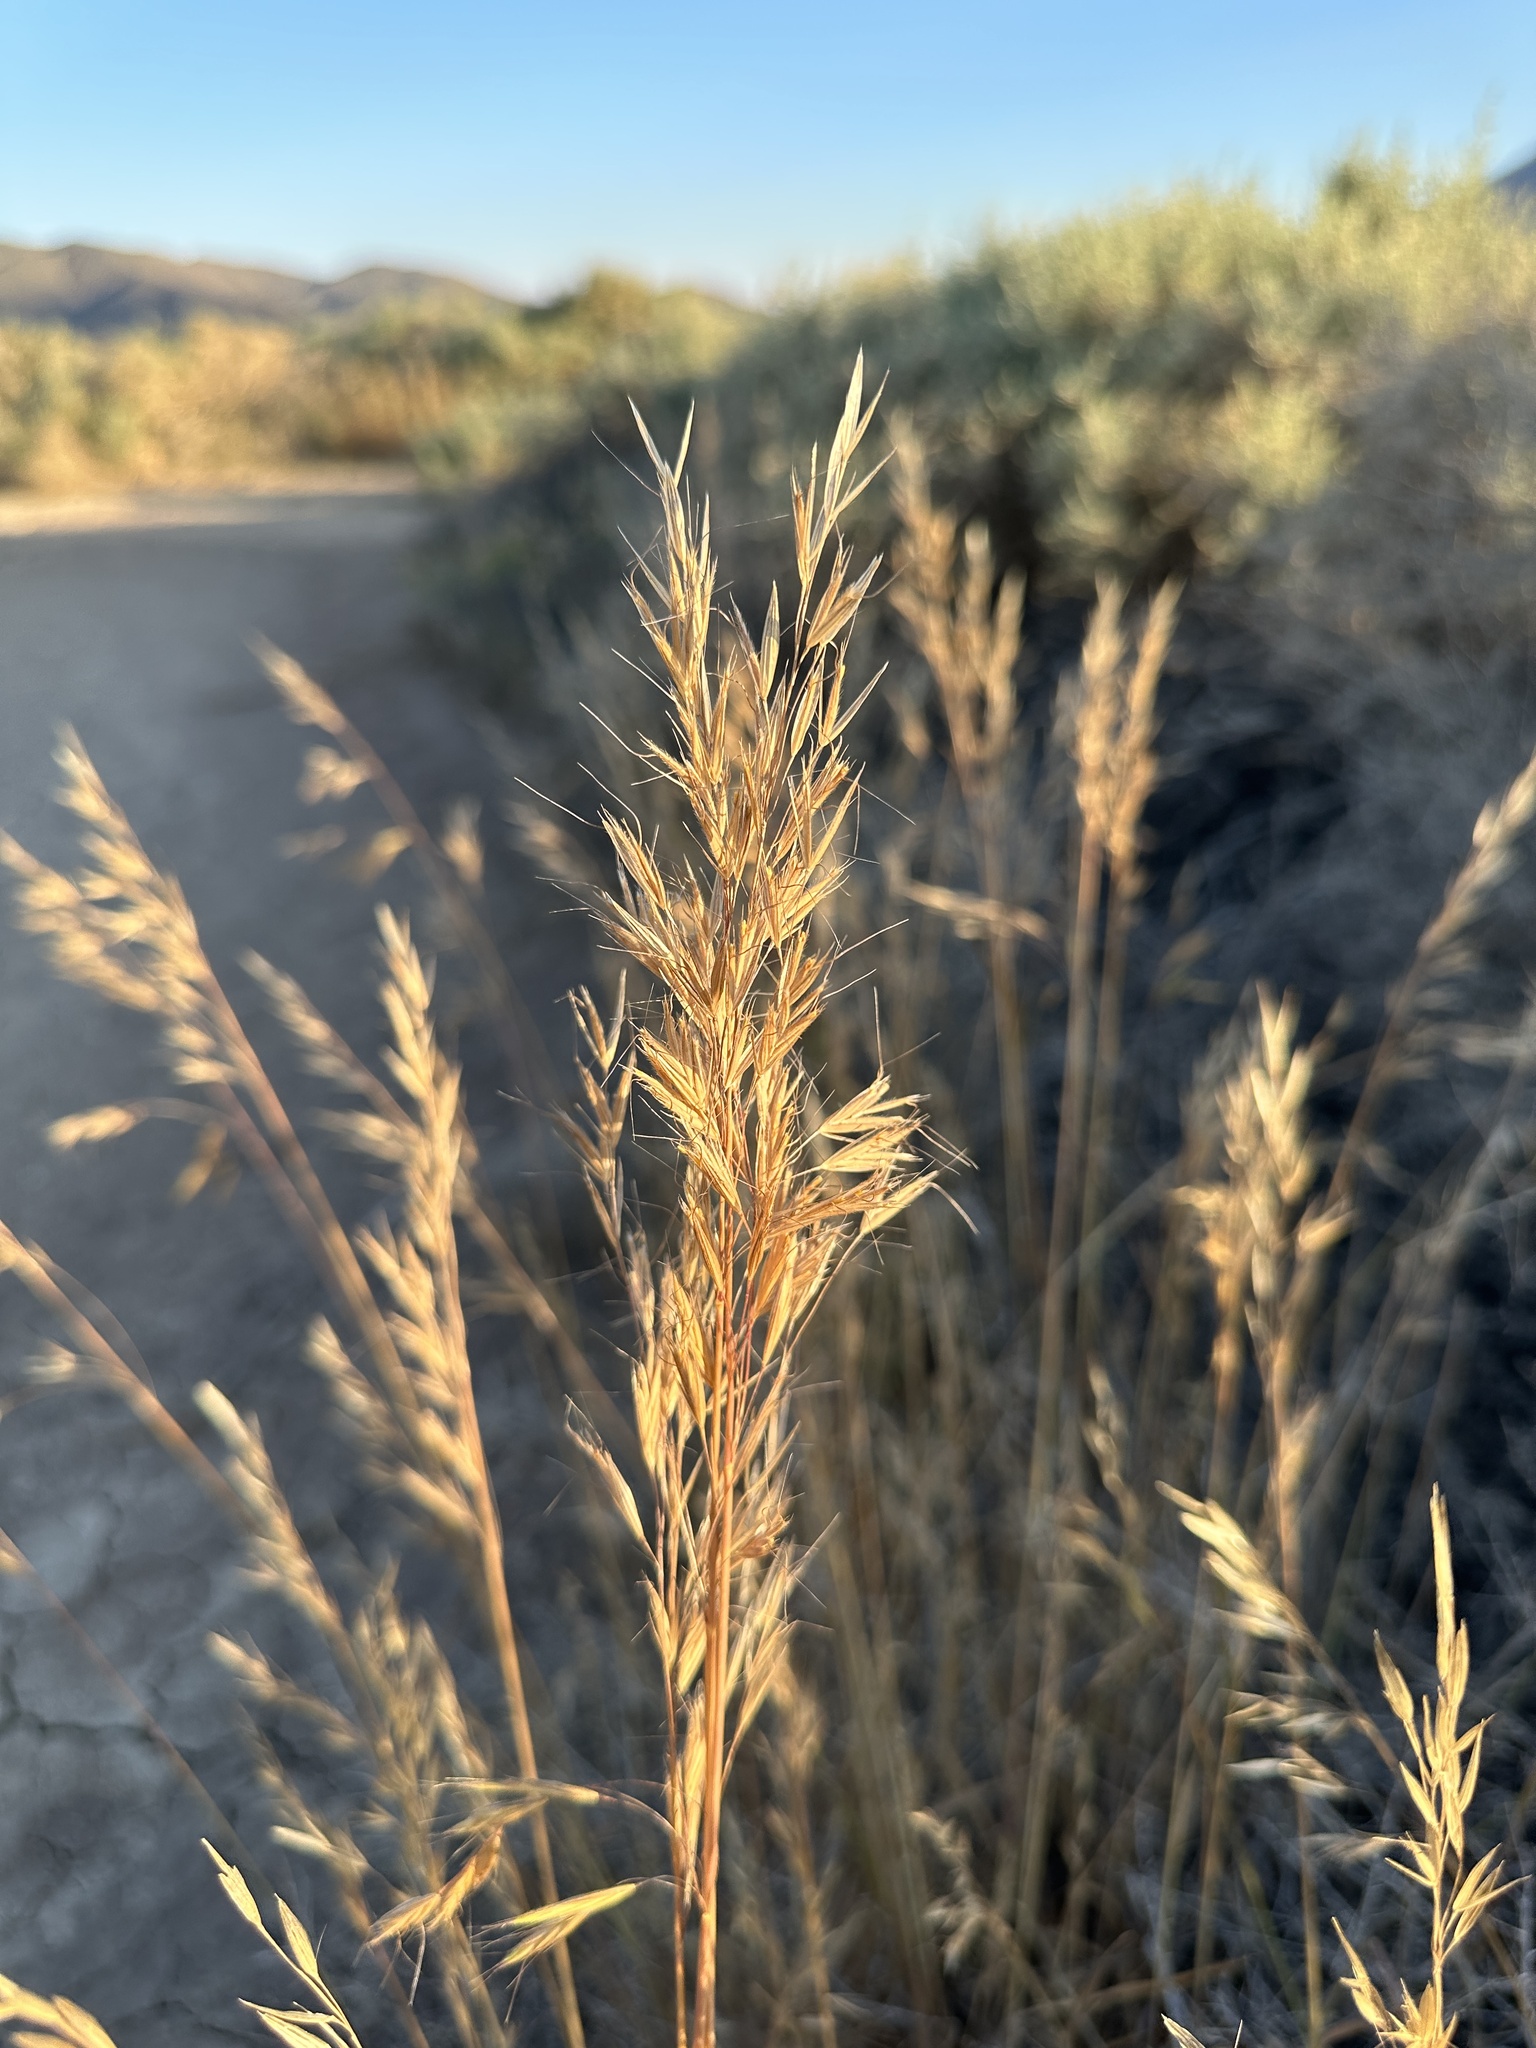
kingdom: Plantae
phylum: Tracheophyta
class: Liliopsida
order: Poales
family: Poaceae
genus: Bromus
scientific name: Bromus berteroanus
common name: Chilean chess
